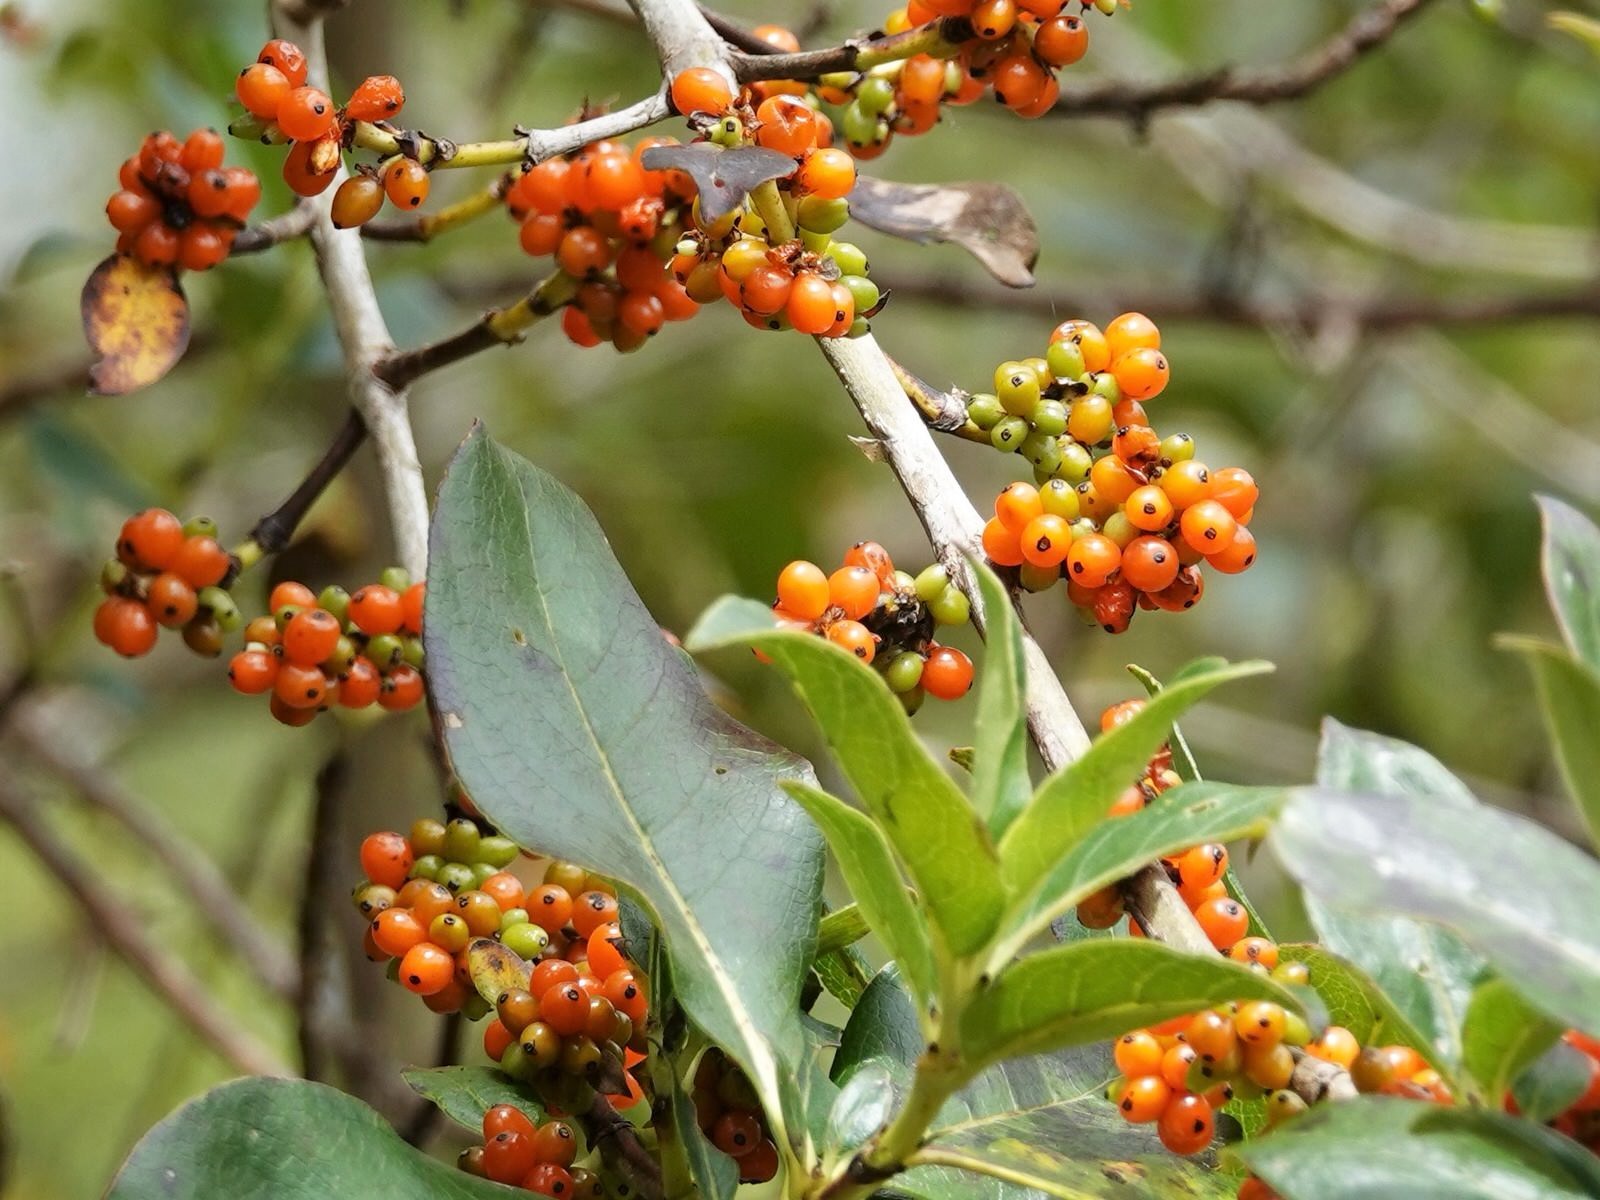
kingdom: Plantae
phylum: Tracheophyta
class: Magnoliopsida
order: Gentianales
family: Rubiaceae
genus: Coprosma
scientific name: Coprosma robusta
